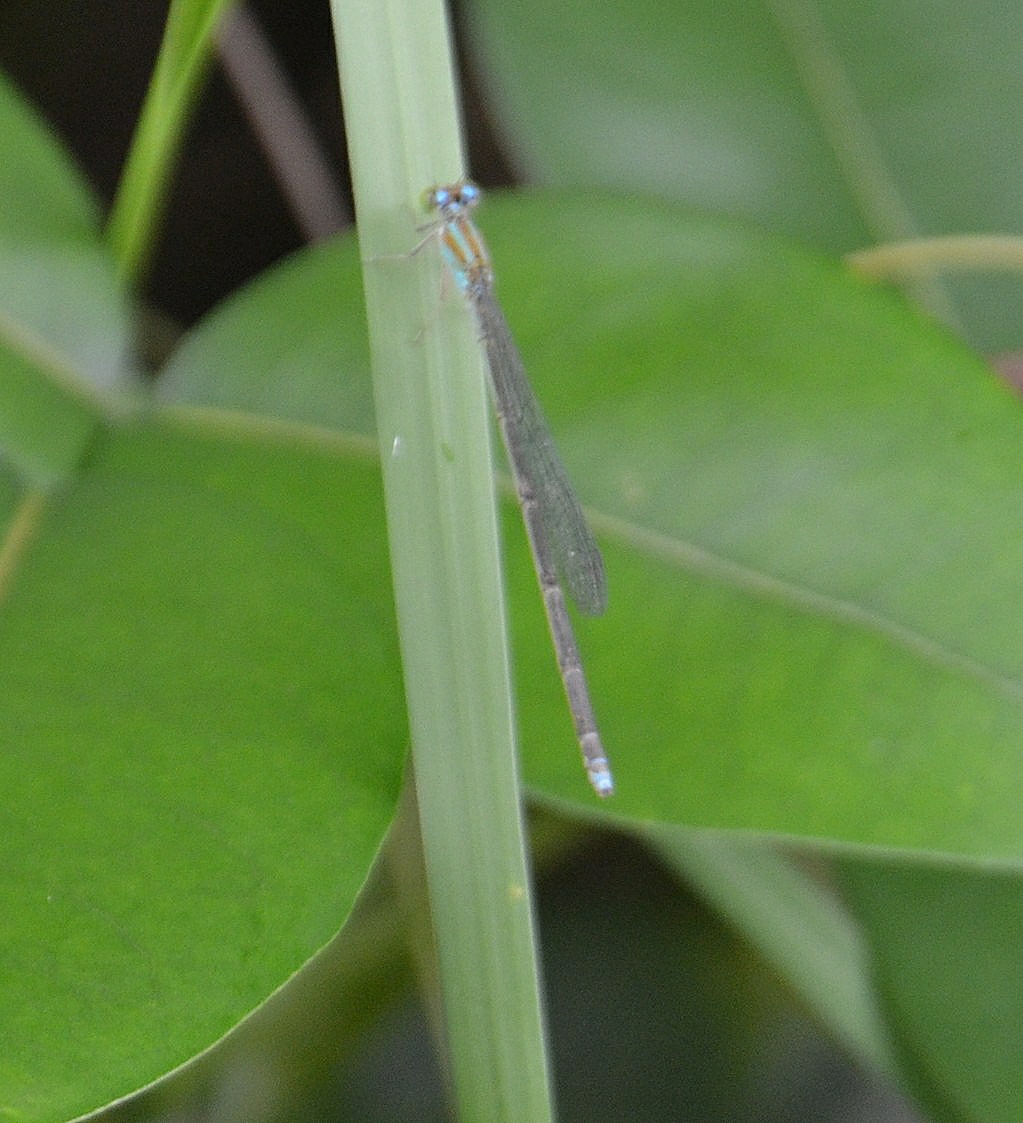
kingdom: Animalia
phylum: Arthropoda
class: Insecta
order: Odonata
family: Coenagrionidae
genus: Pseudagrion
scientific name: Pseudagrion microcephalum
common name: Blue riverdamsel
